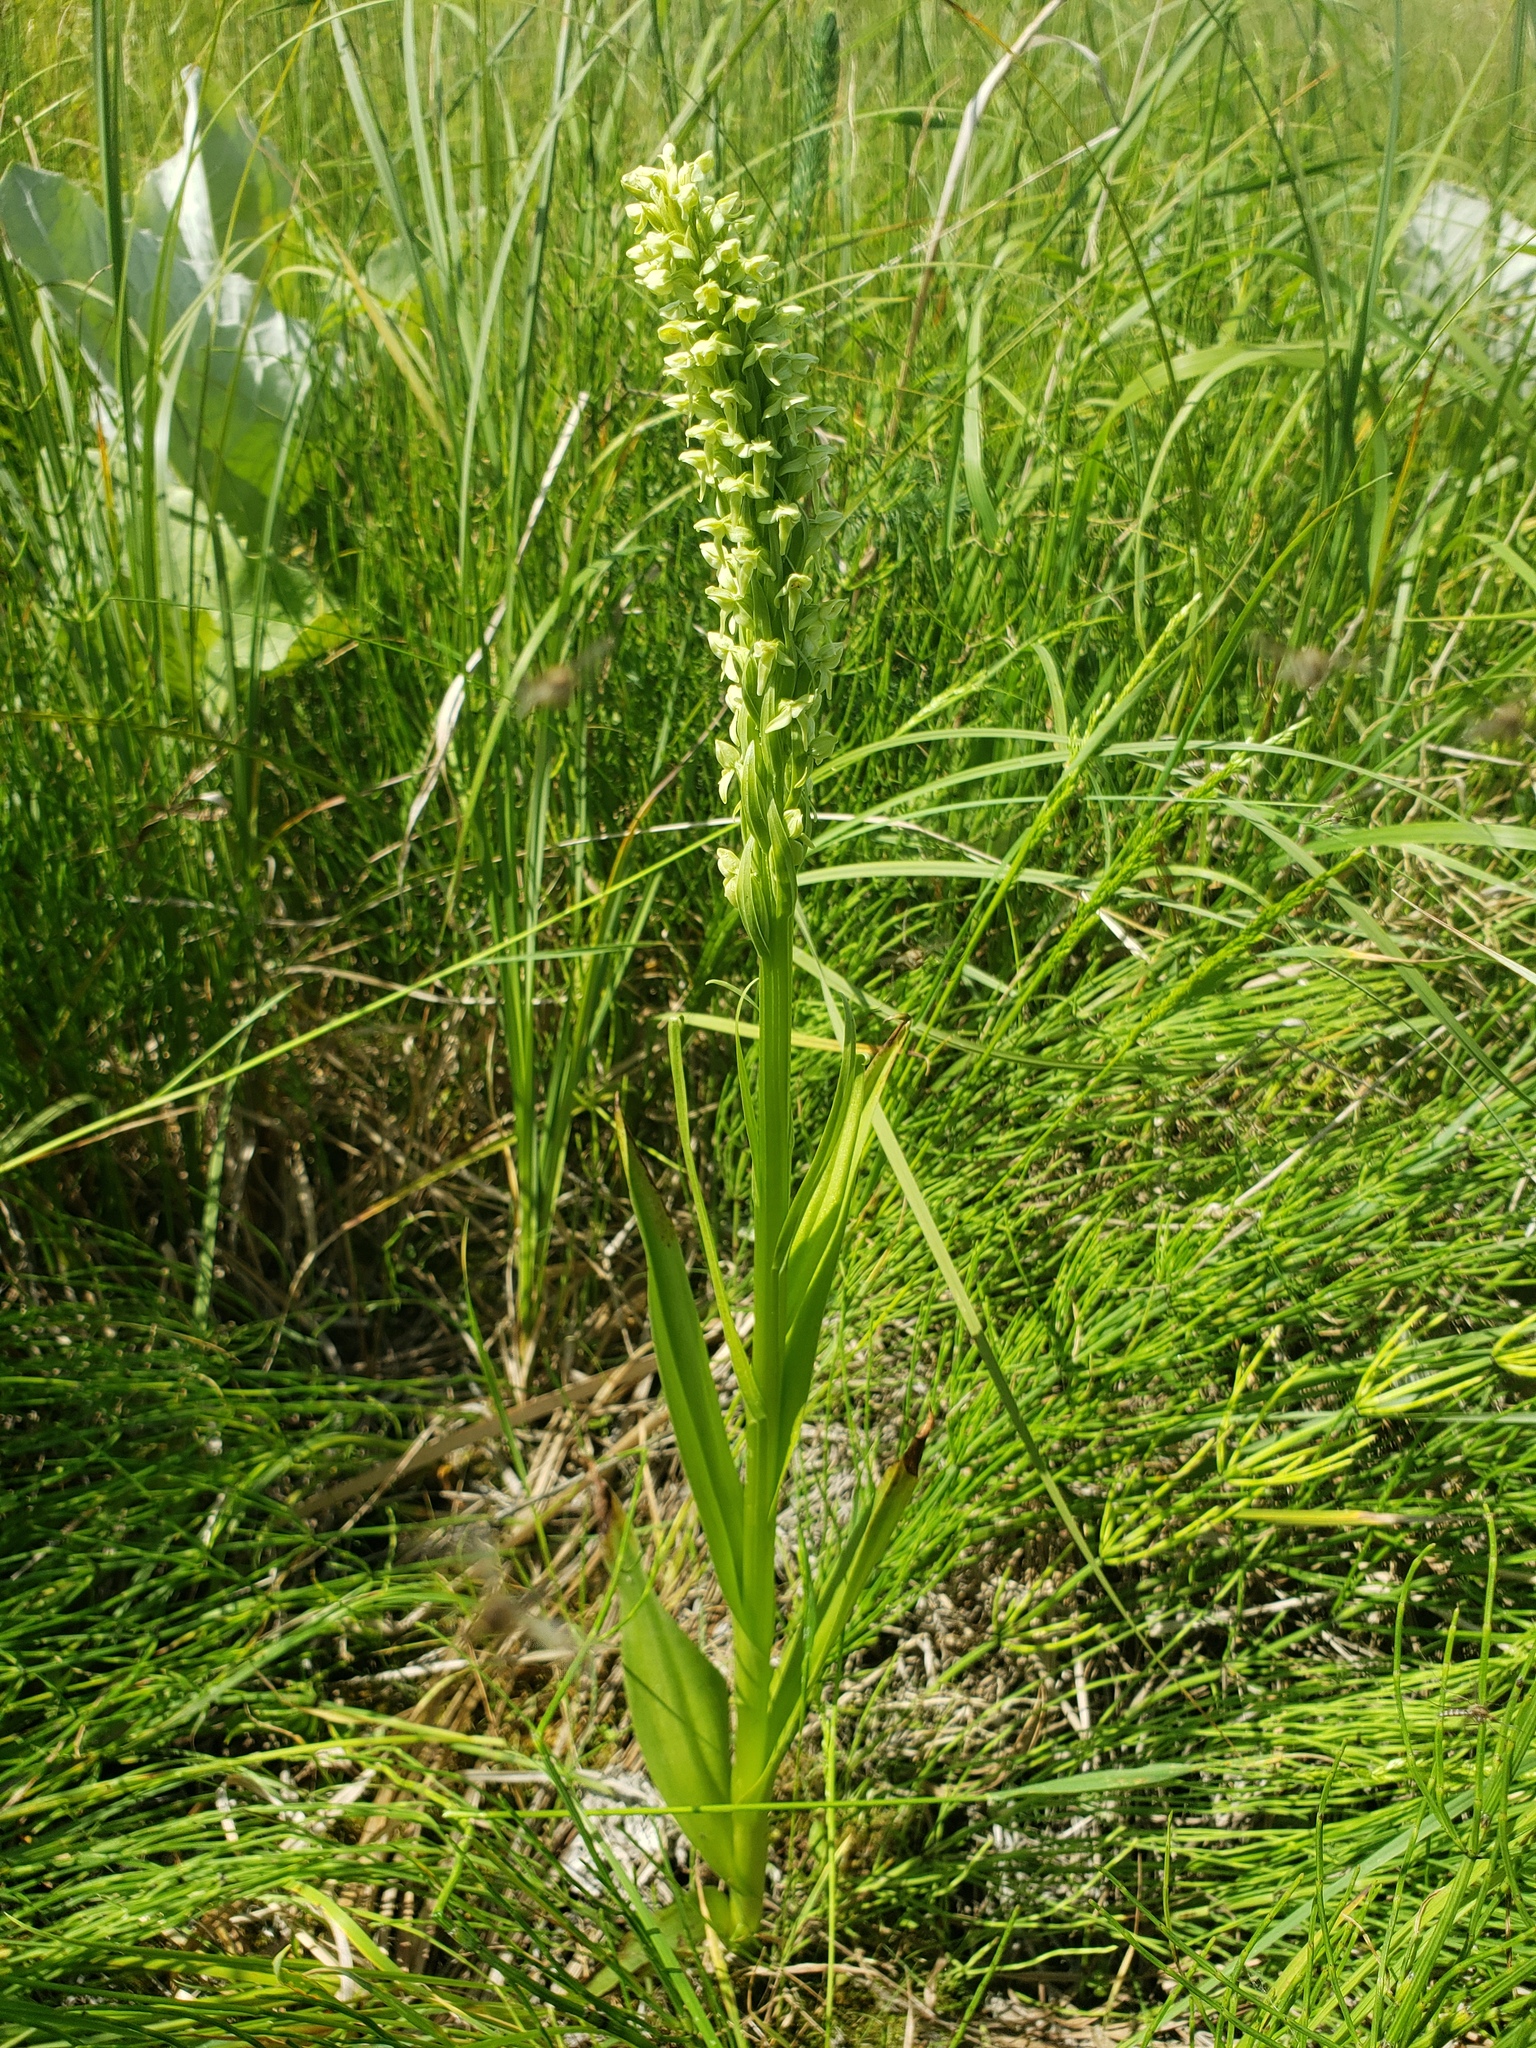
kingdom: Plantae
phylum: Tracheophyta
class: Liliopsida
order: Asparagales
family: Orchidaceae
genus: Platanthera
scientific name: Platanthera huronensis
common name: Fragrant green orchid
